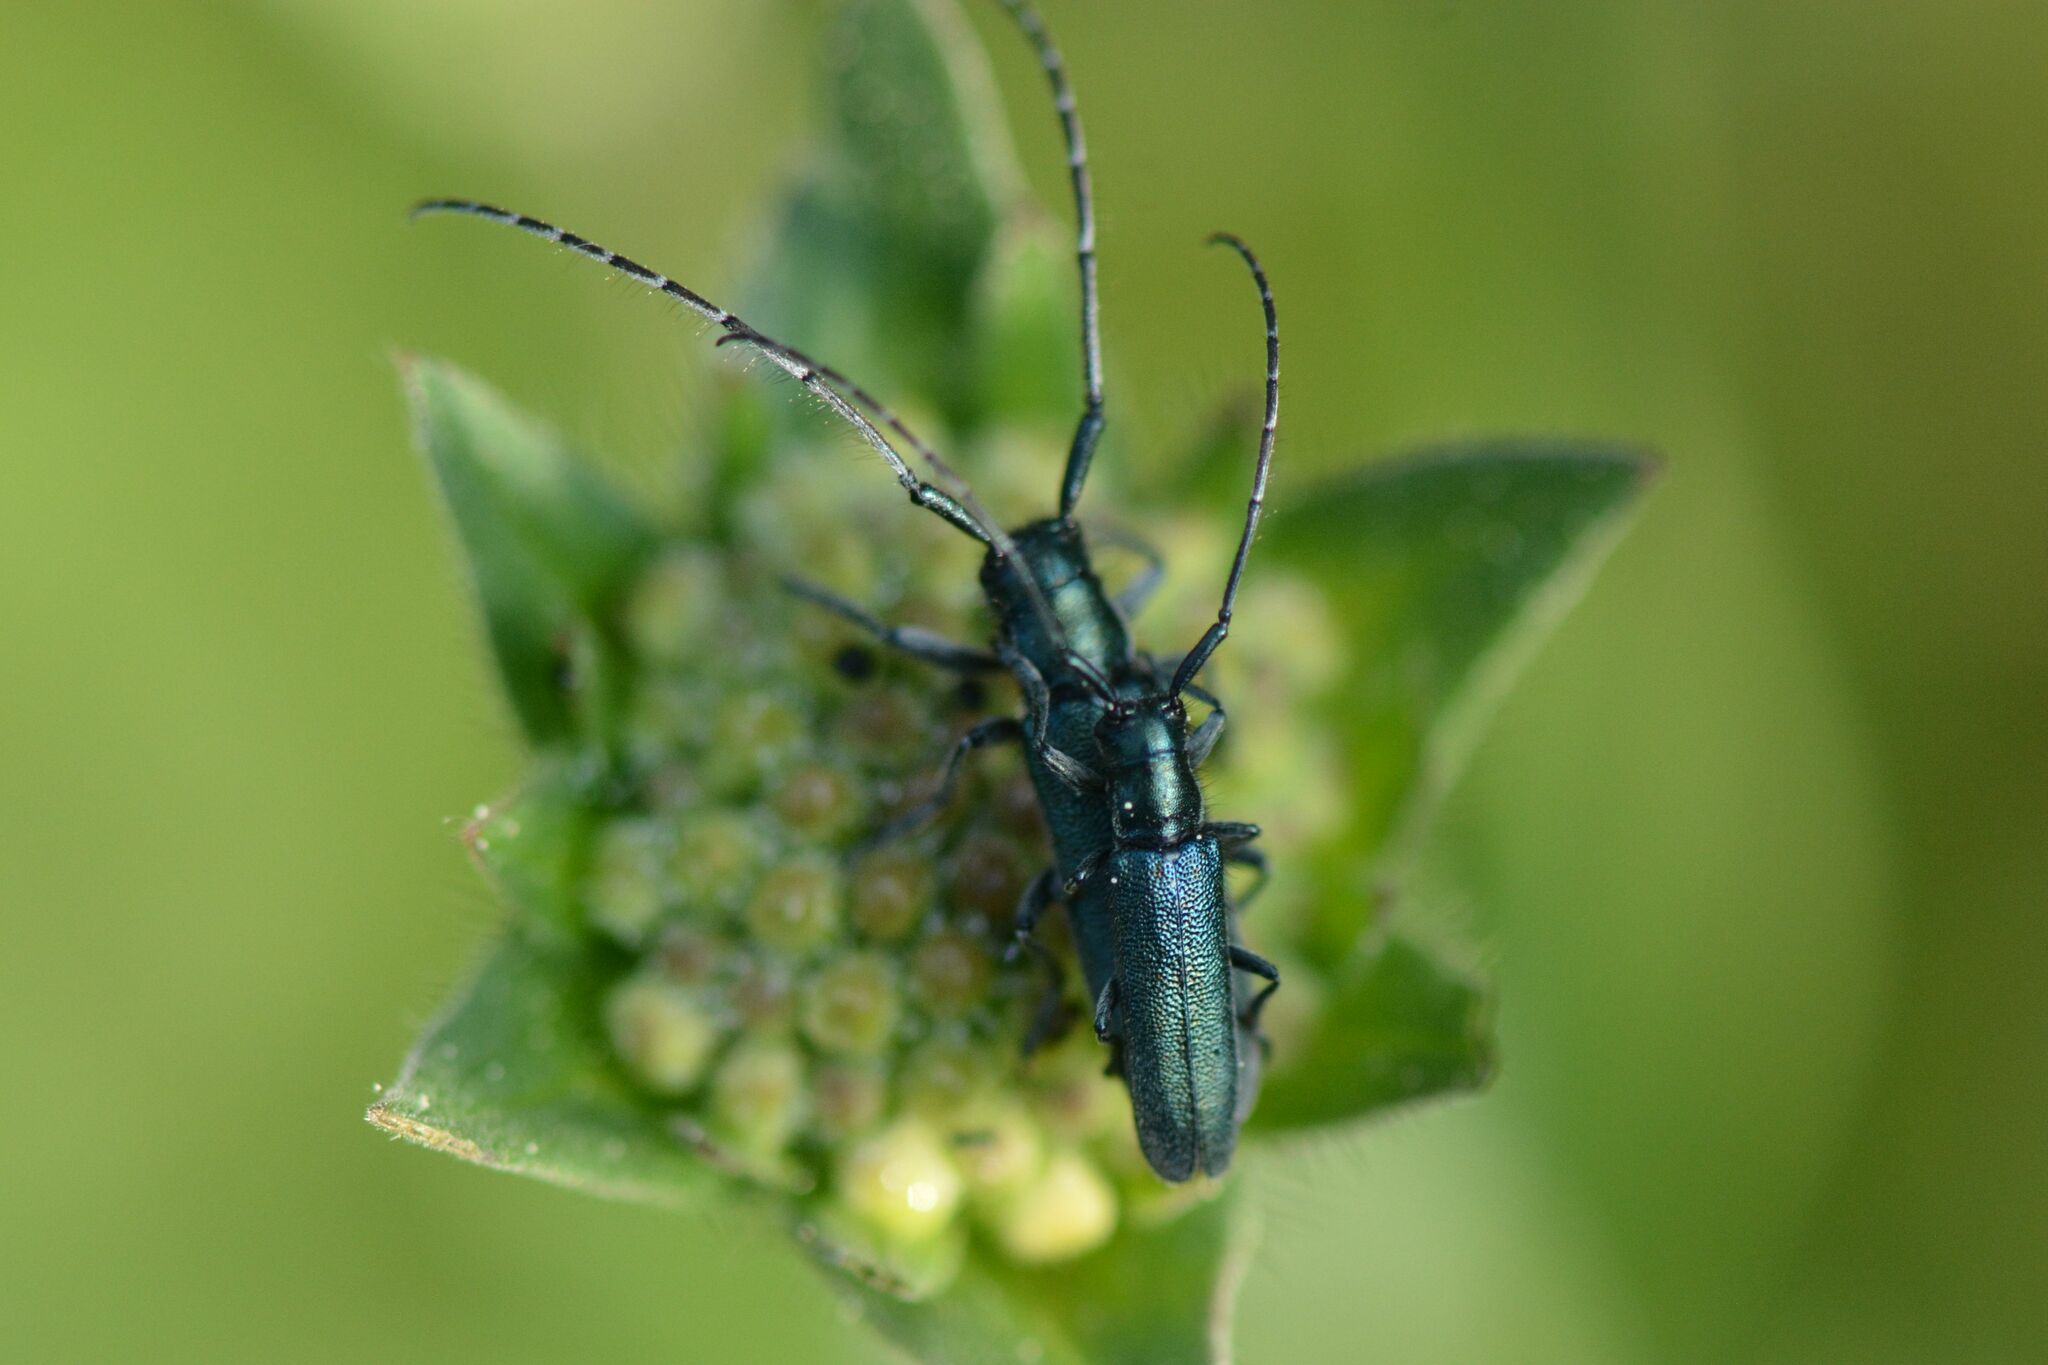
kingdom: Animalia
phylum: Arthropoda
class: Insecta
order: Coleoptera
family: Cerambycidae
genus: Agapanthia
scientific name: Agapanthia intermedia
